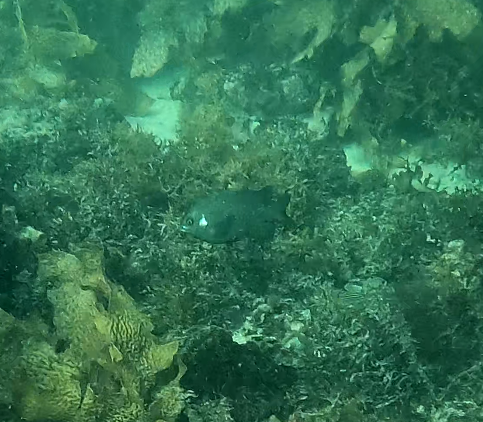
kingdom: Animalia
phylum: Chordata
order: Perciformes
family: Pomacentridae
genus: Parma
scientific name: Parma microlepis
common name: White-ear
